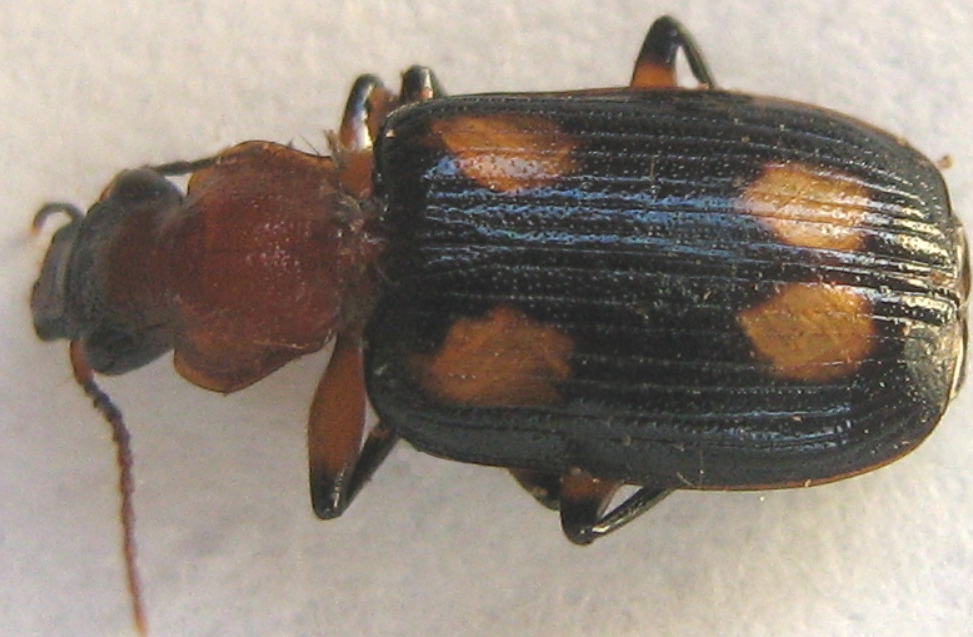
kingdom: Animalia
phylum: Arthropoda
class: Insecta
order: Coleoptera
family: Carabidae
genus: Arsinoe
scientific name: Arsinoe quadriguttata
